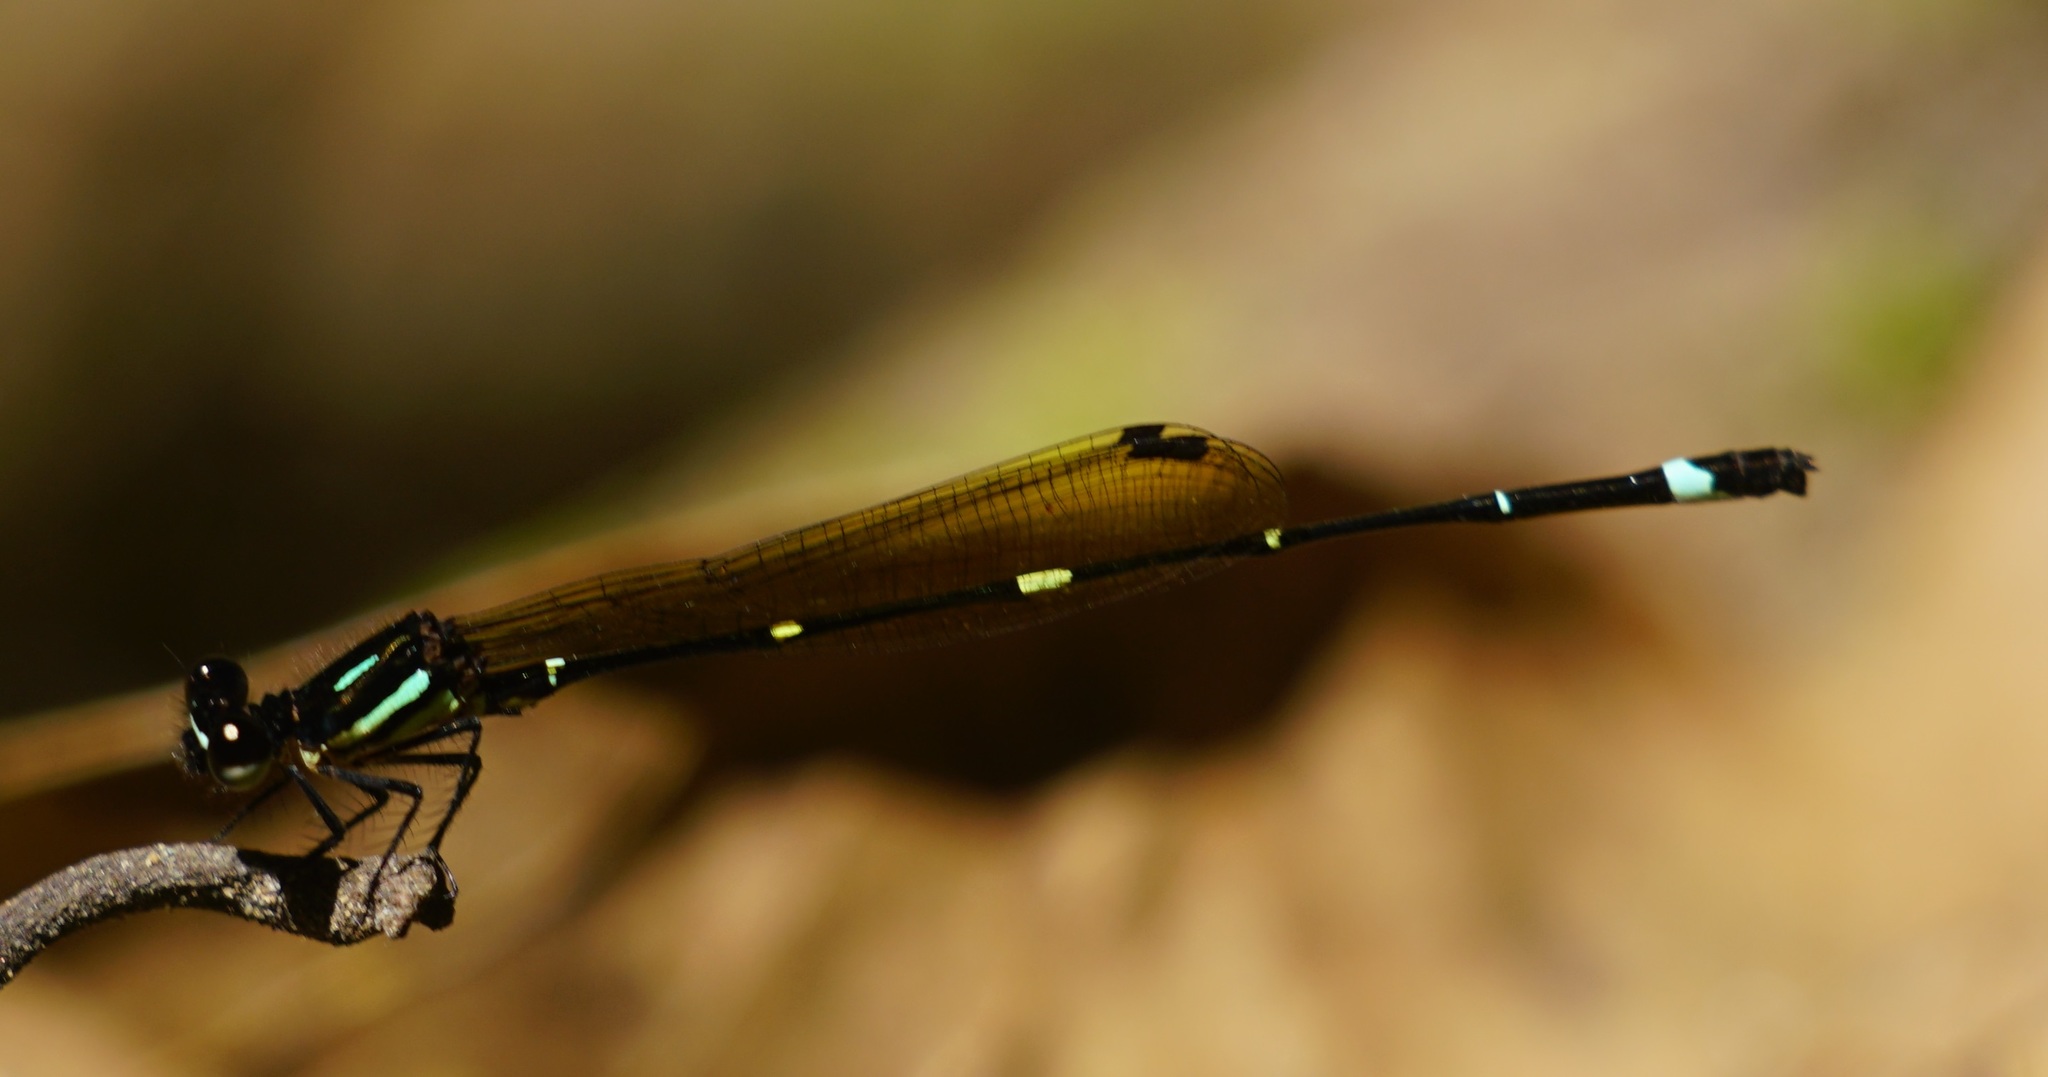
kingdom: Animalia
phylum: Arthropoda
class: Insecta
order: Odonata
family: Platycnemididae
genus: Nososticta
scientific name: Nososticta solitaria
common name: Fivespot threadtail
